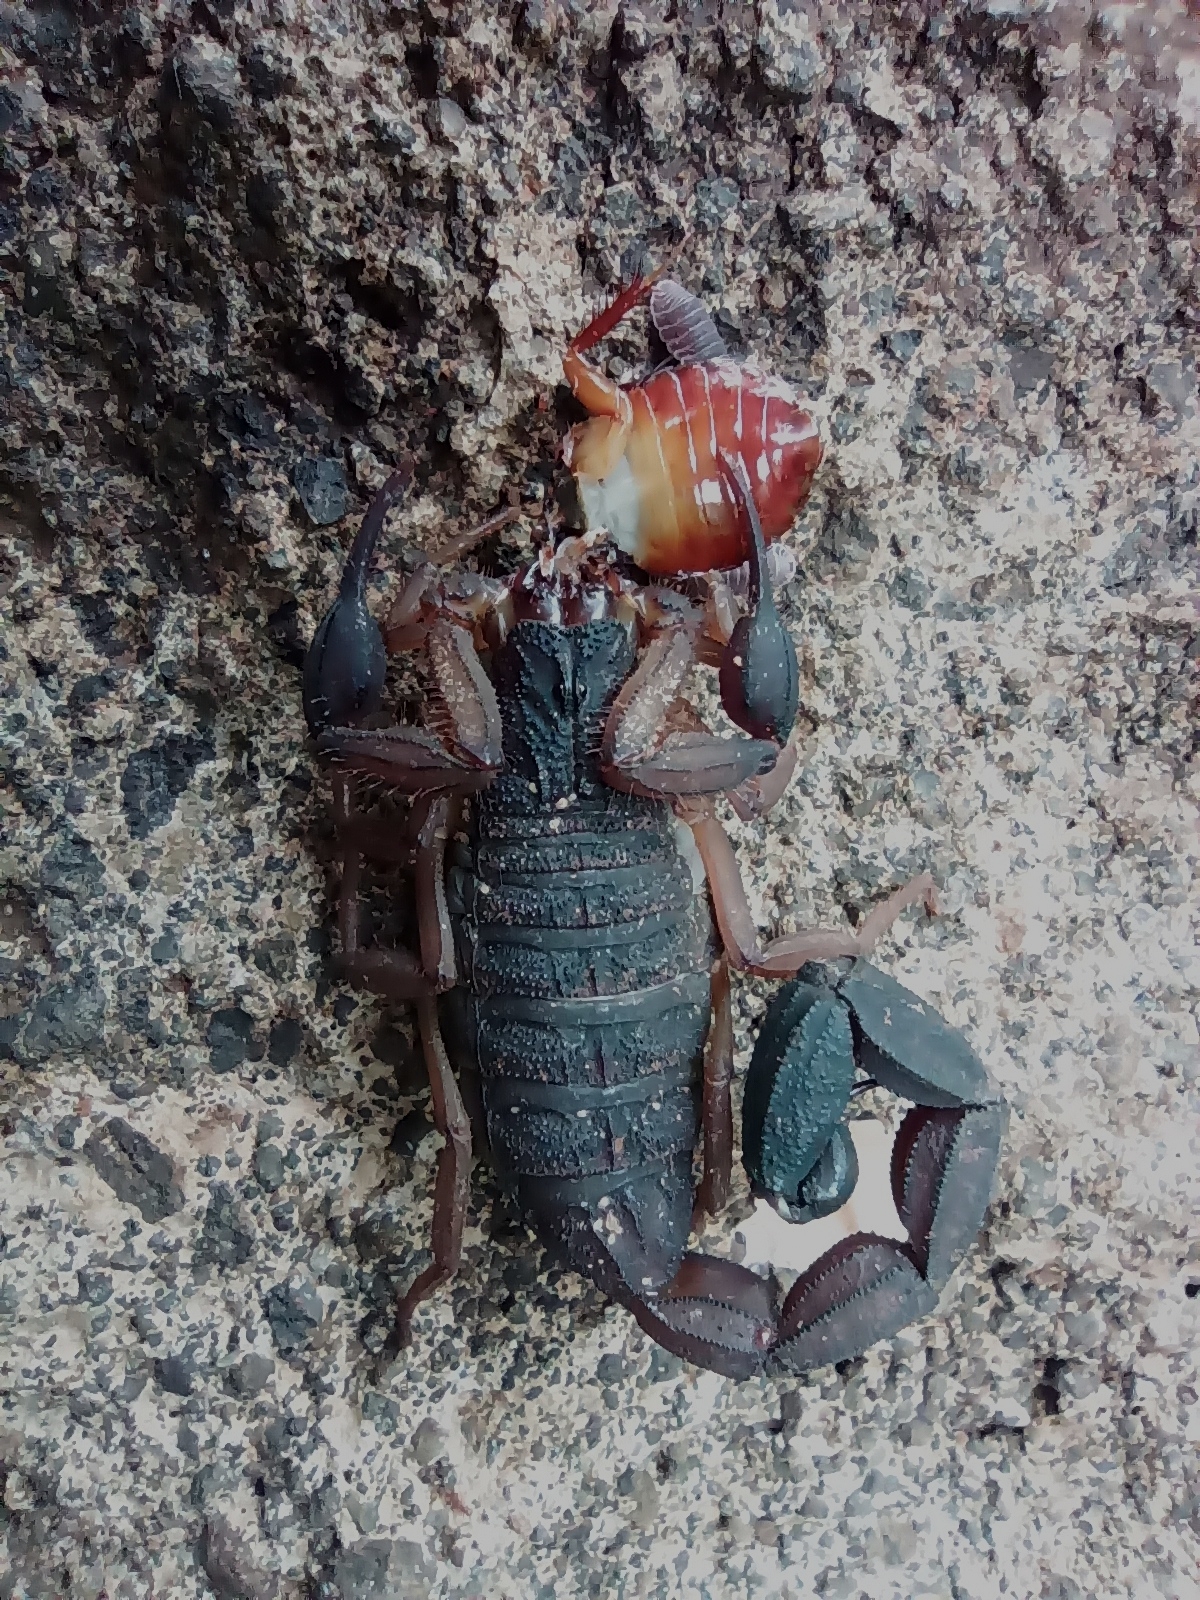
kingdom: Animalia
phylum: Arthropoda
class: Arachnida
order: Scorpiones
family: Buthidae
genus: Centruroides
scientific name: Centruroides edwardsii
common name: Scorpions
